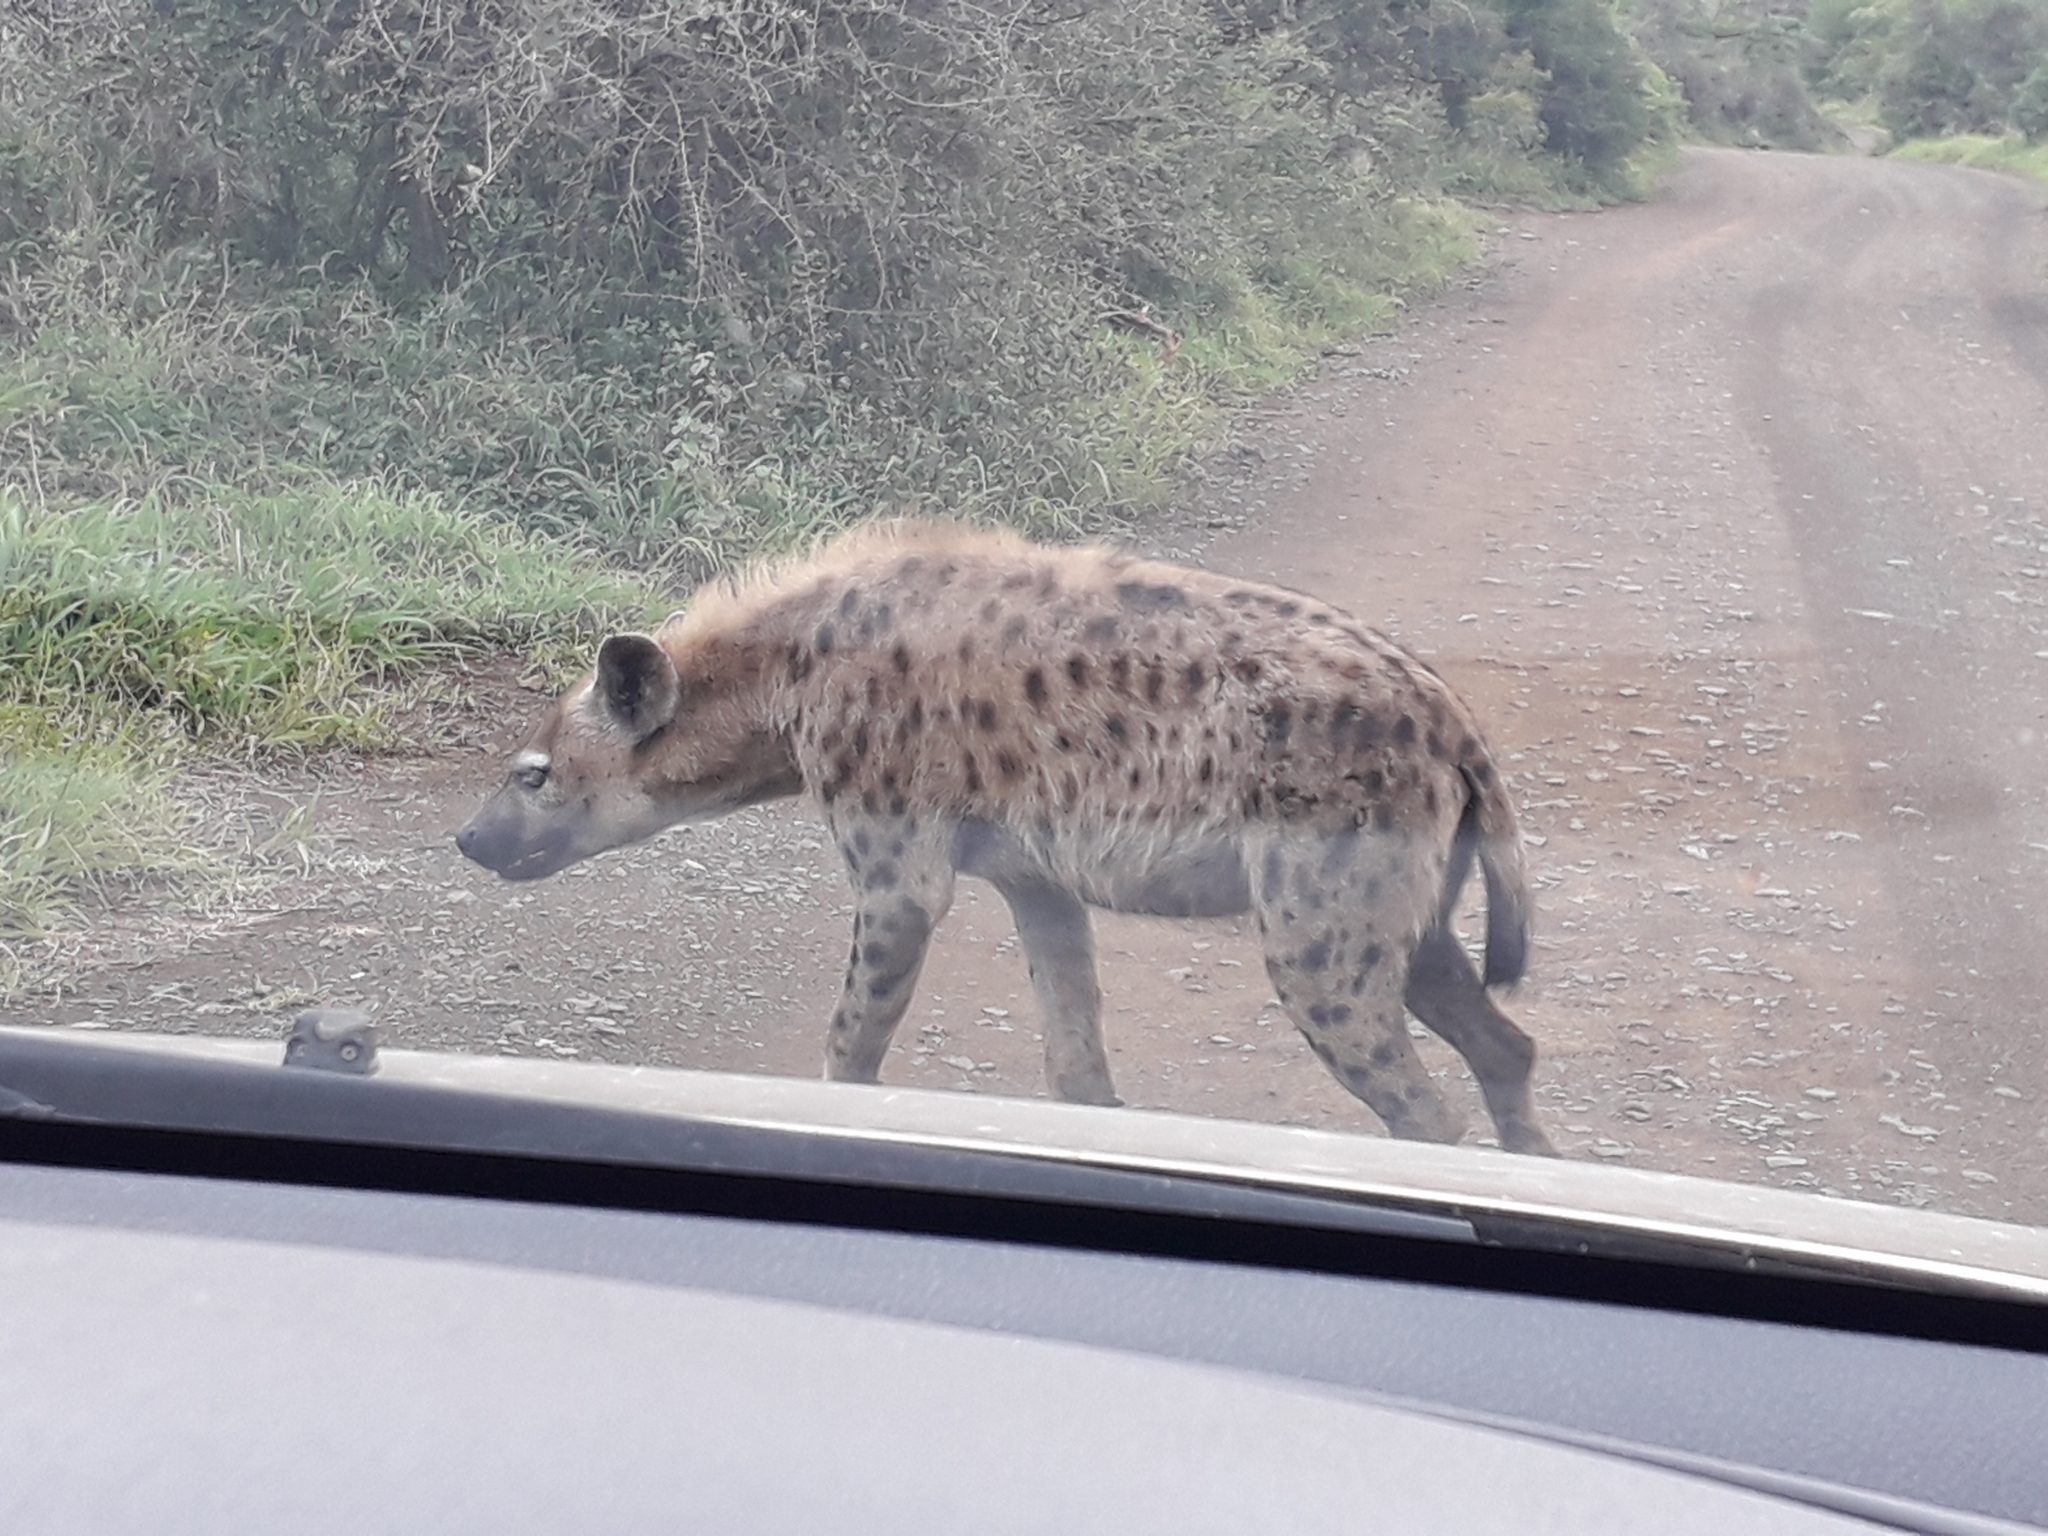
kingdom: Animalia
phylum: Chordata
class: Mammalia
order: Carnivora
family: Hyaenidae
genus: Crocuta
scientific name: Crocuta crocuta
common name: Spotted hyaena
